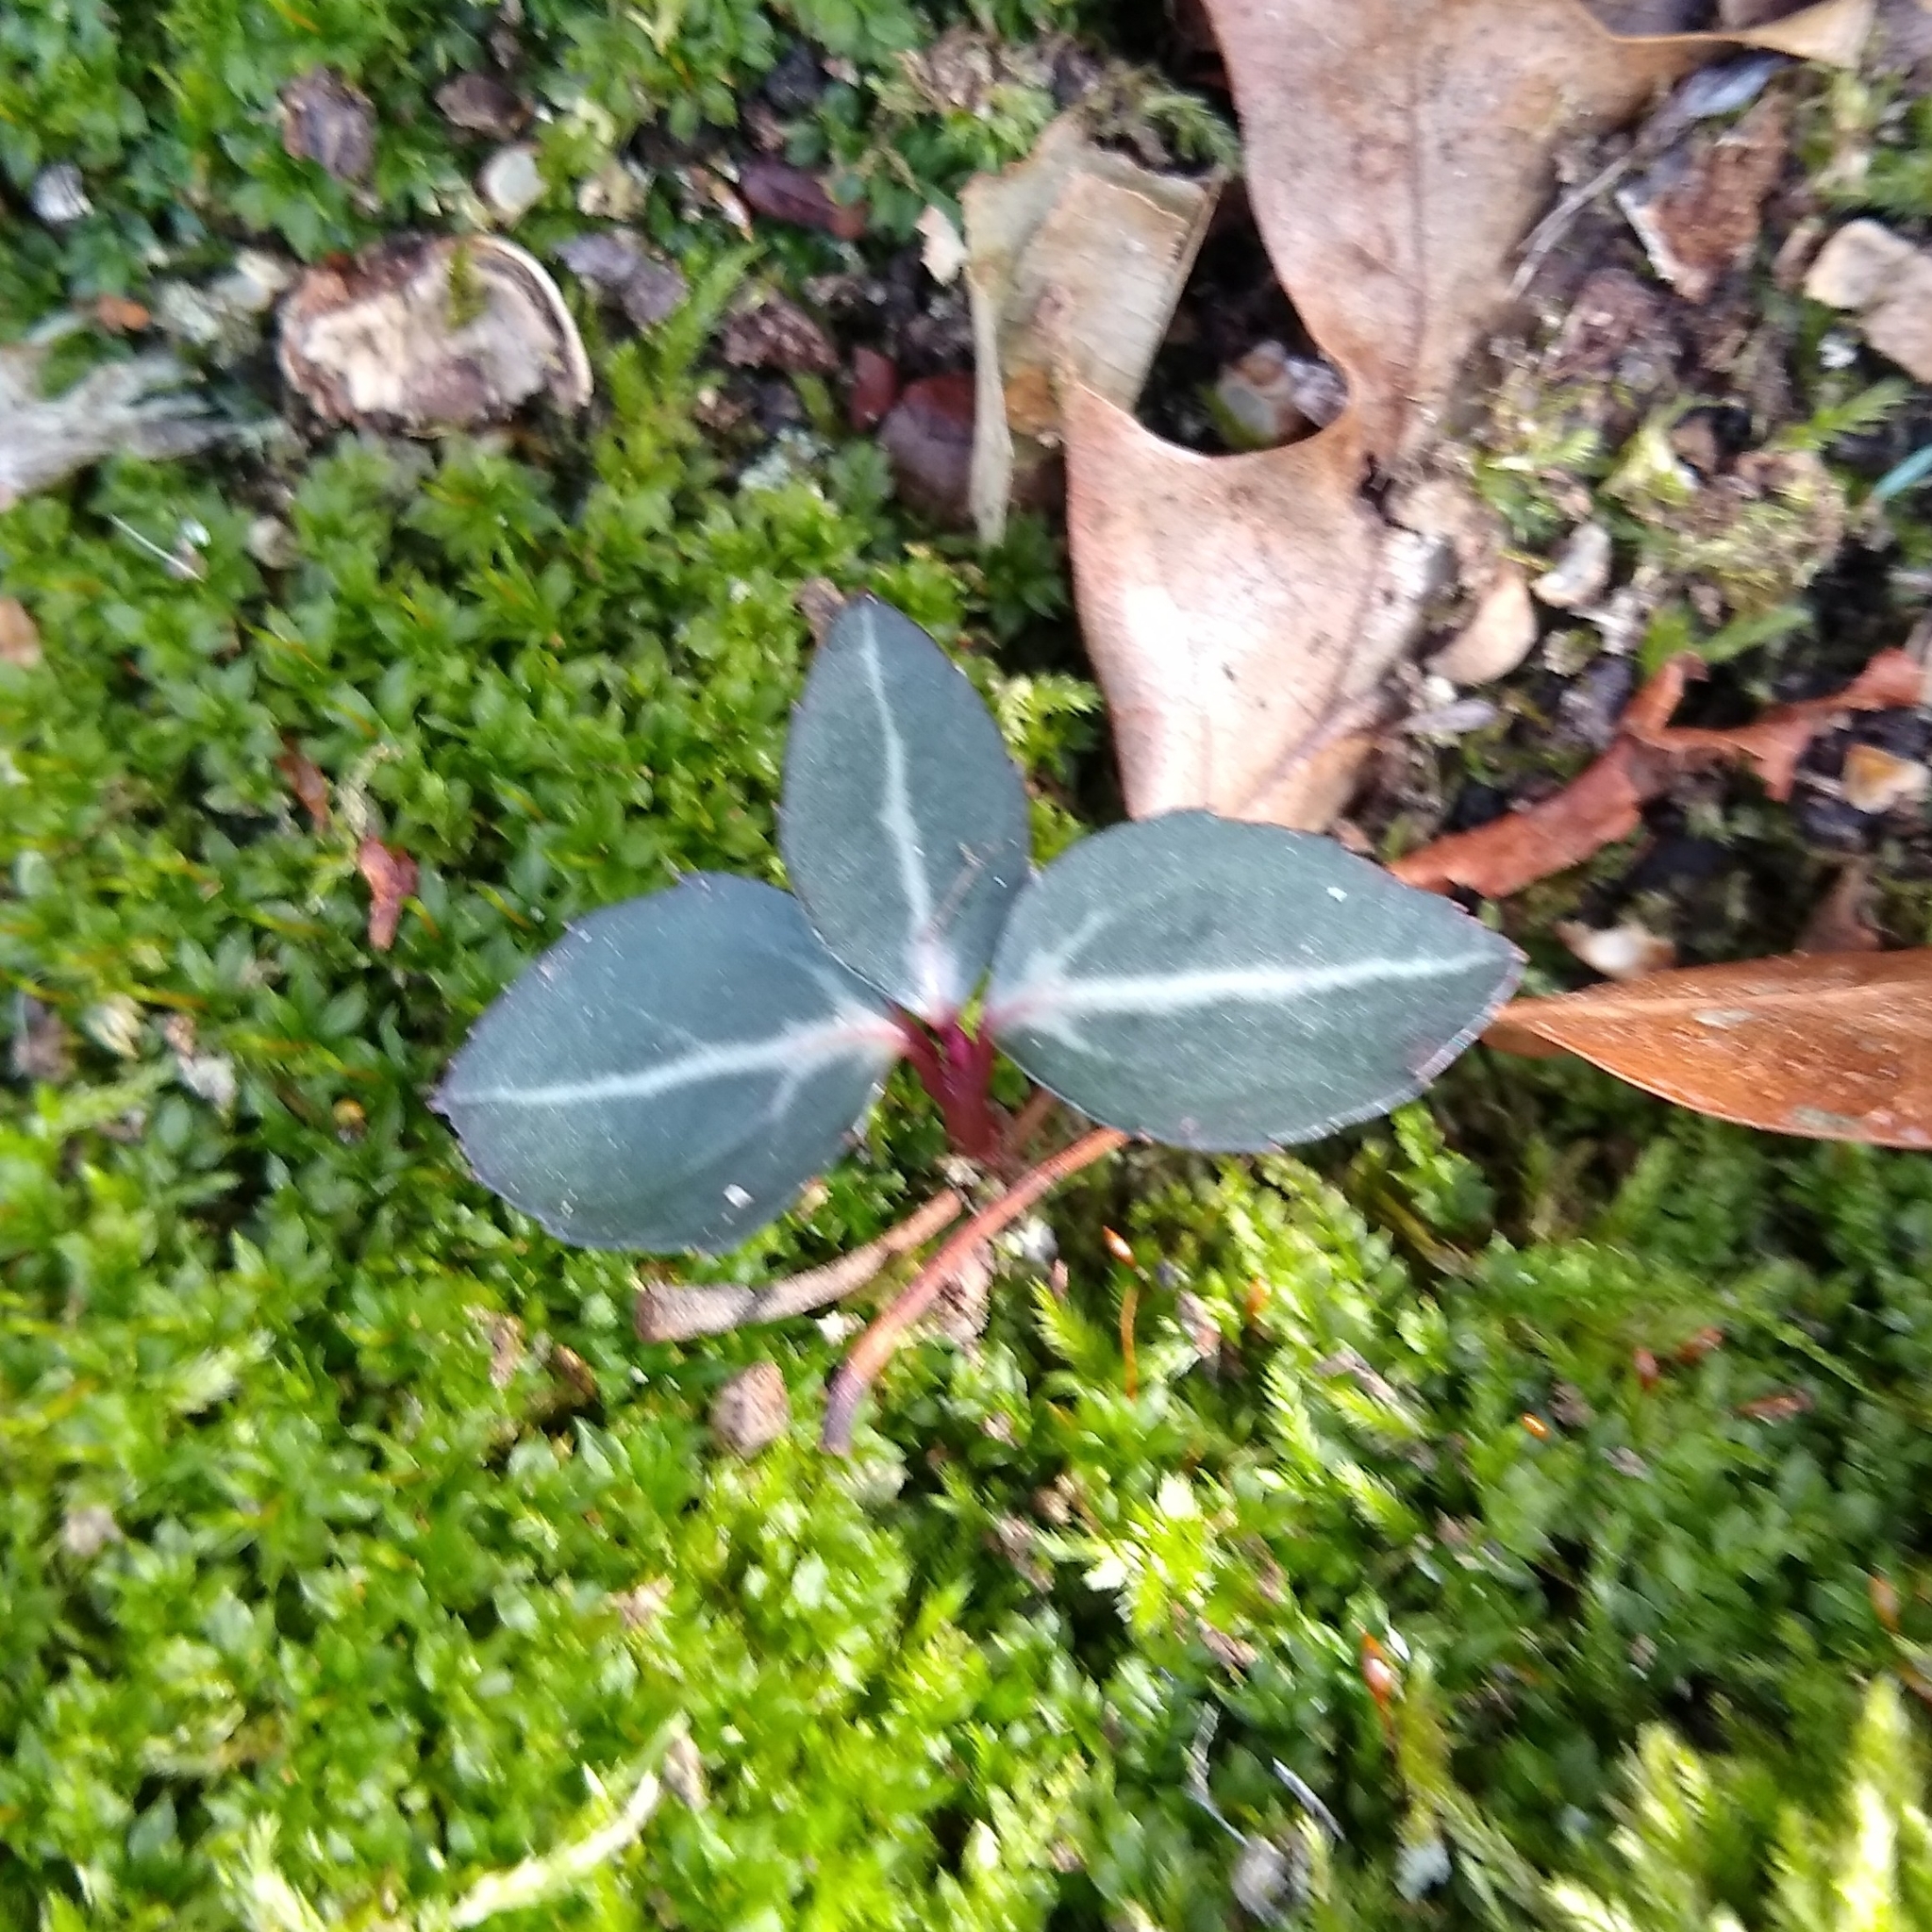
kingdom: Plantae
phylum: Tracheophyta
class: Magnoliopsida
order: Ericales
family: Ericaceae
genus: Chimaphila
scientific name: Chimaphila maculata
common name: Spotted pipsissewa
